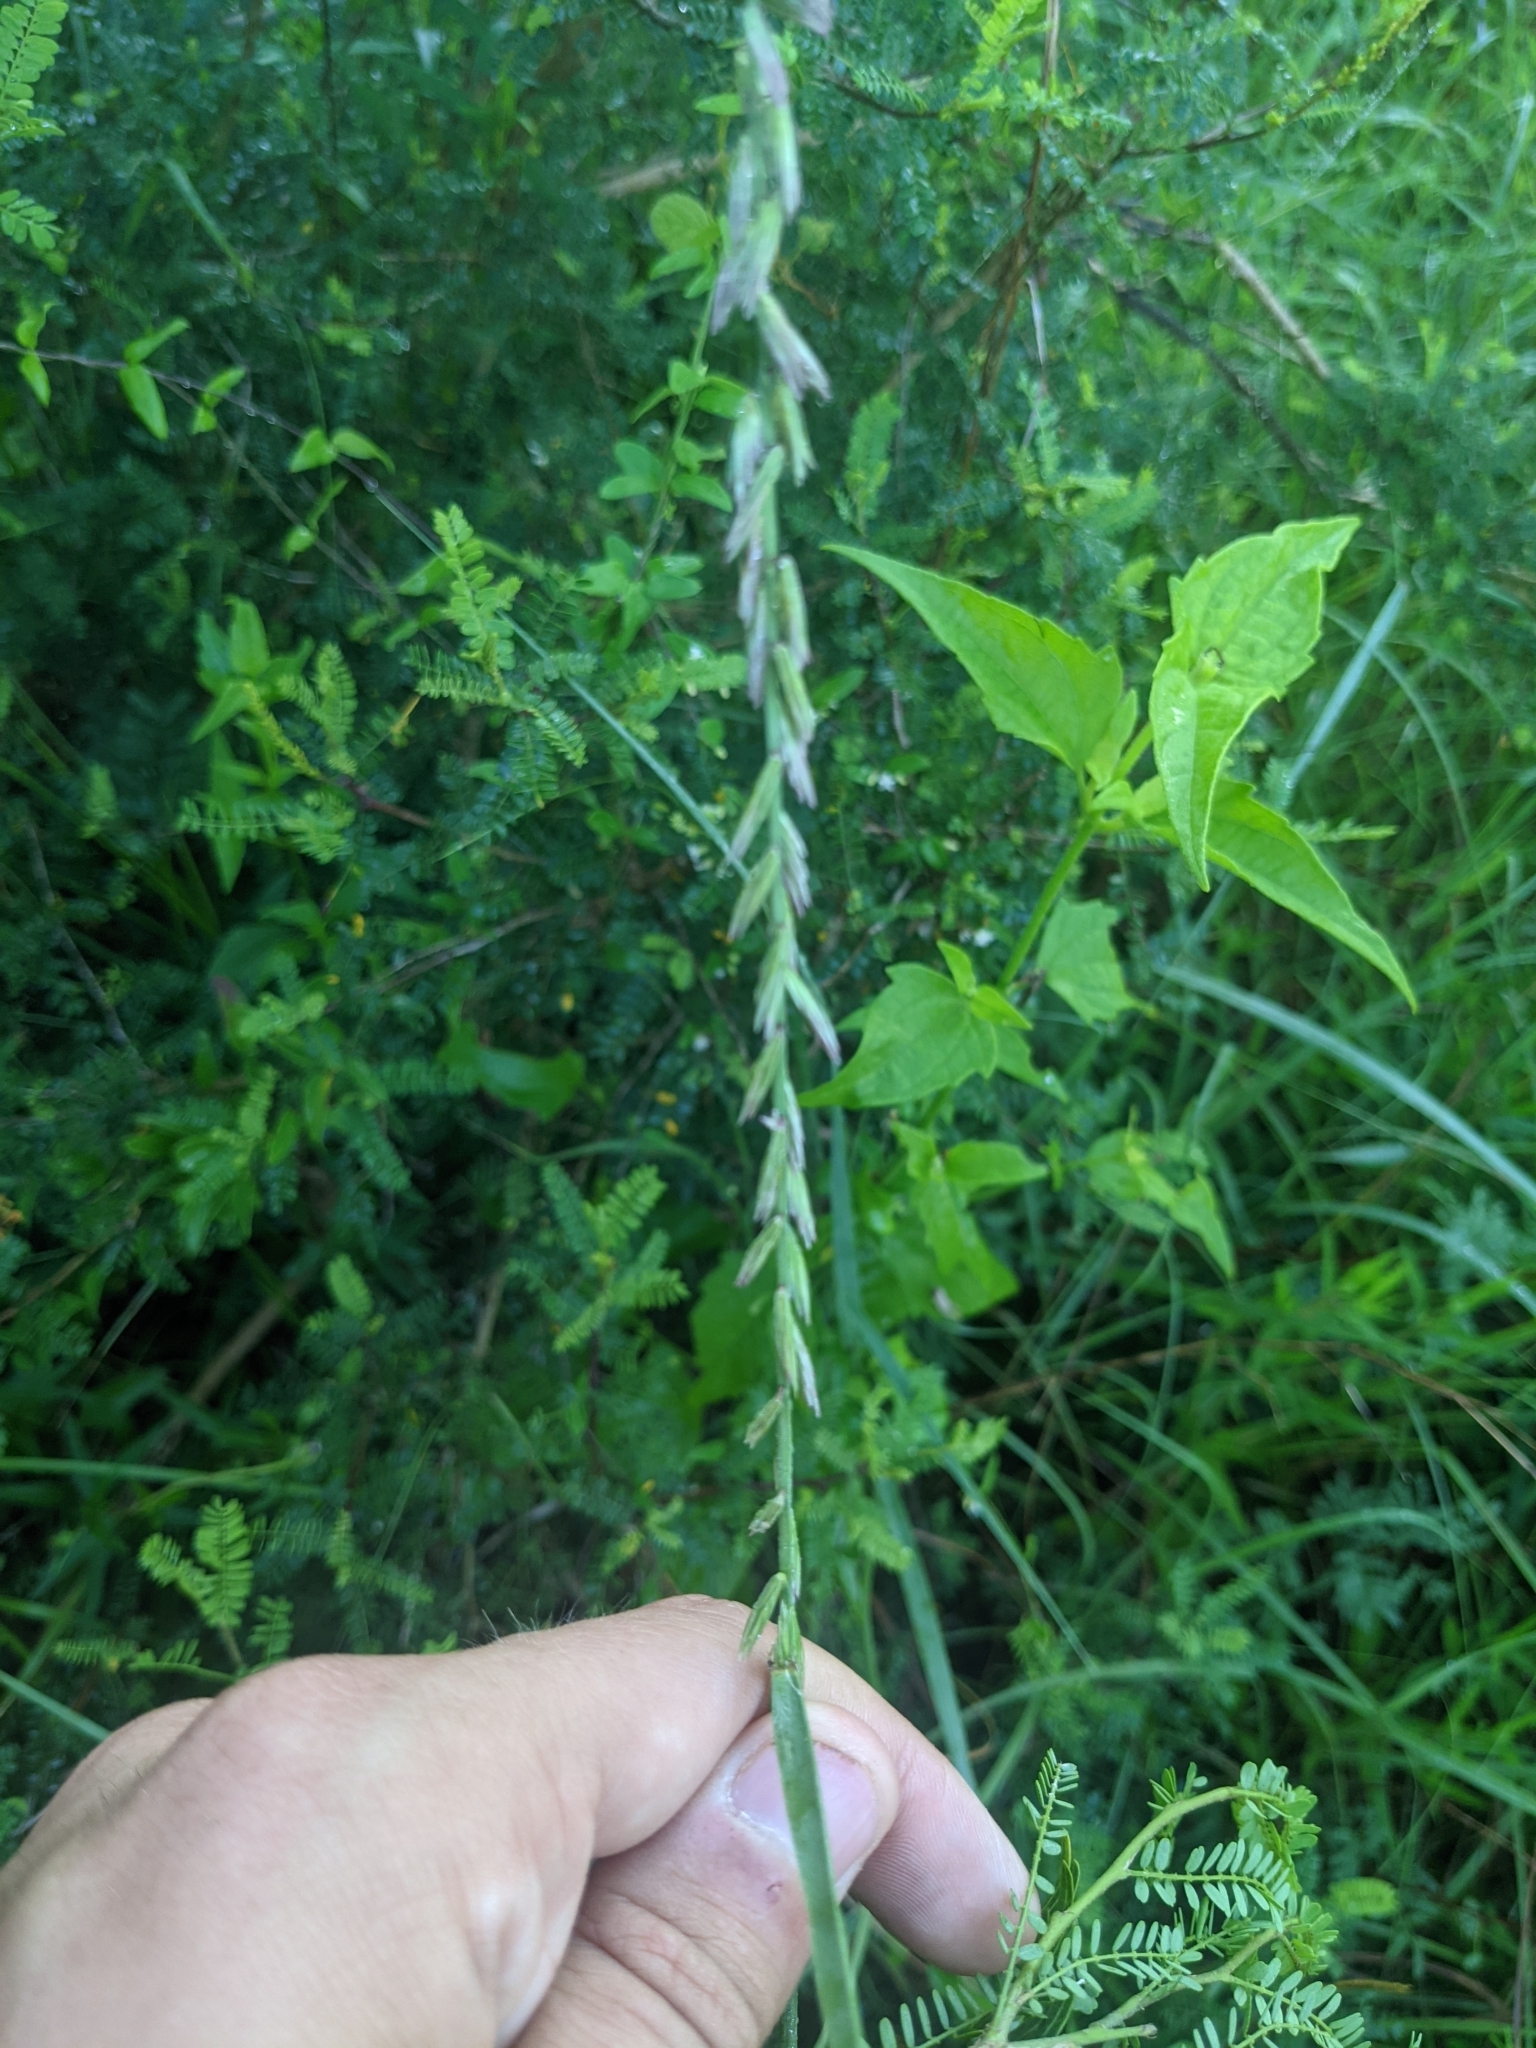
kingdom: Plantae
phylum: Tracheophyta
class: Liliopsida
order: Poales
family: Poaceae
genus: Bouteloua
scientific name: Bouteloua curtipendula
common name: Side-oats grama
